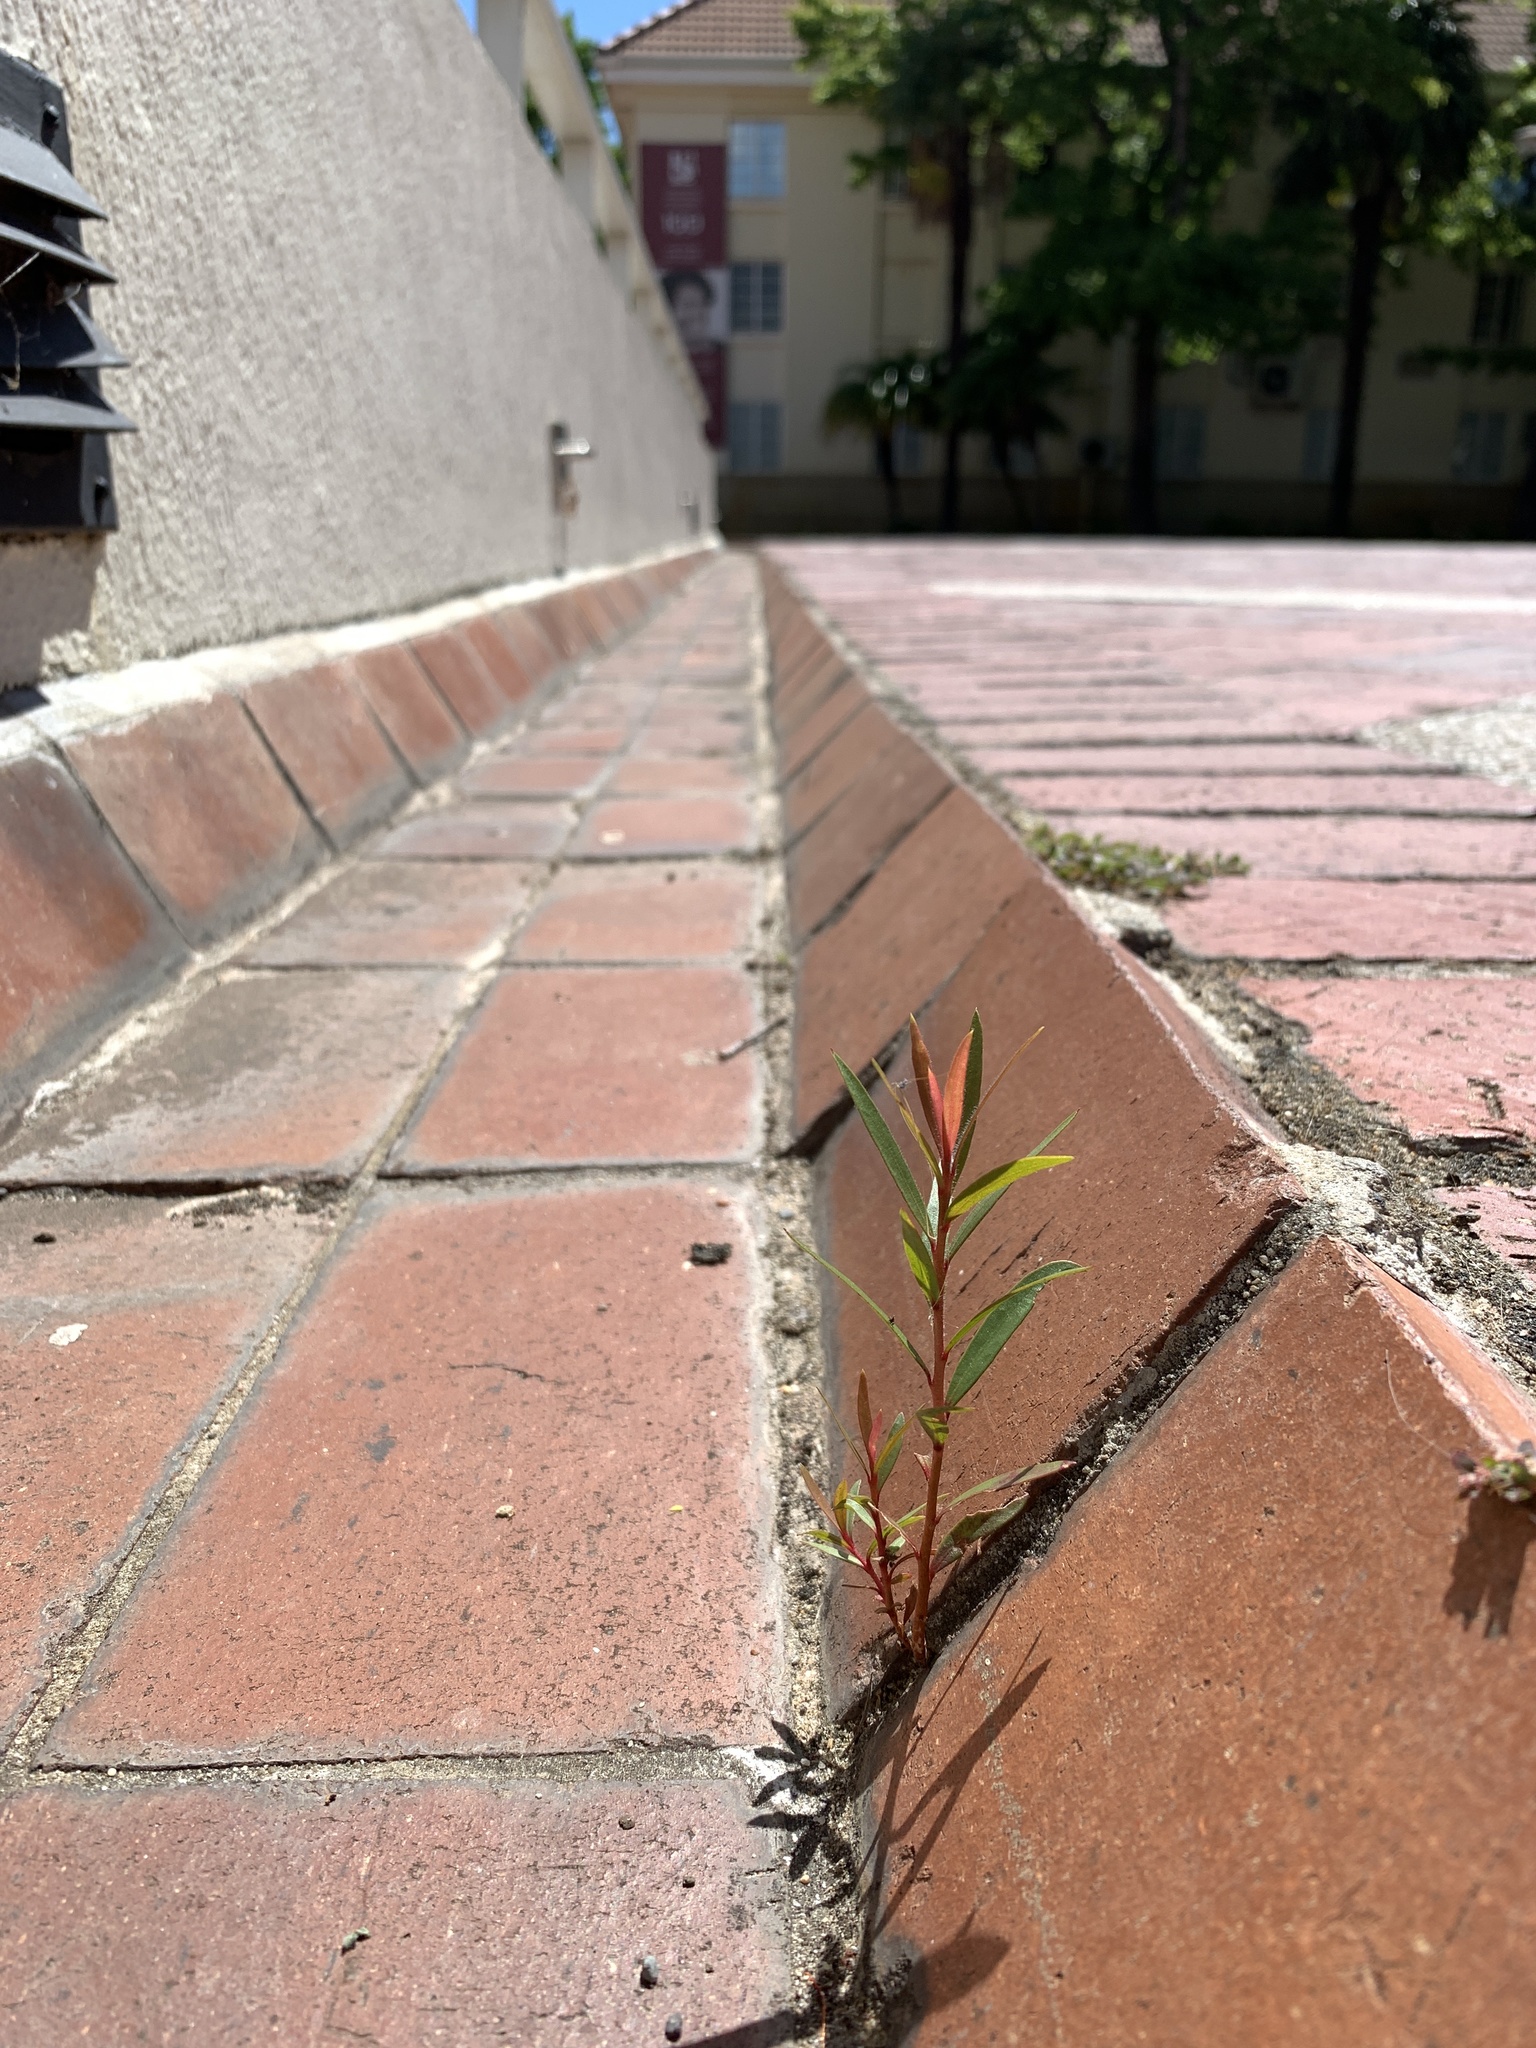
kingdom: Plantae
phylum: Tracheophyta
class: Magnoliopsida
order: Myrtales
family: Myrtaceae
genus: Callistemon
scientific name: Callistemon viminalis
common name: Drooping bottlebrush
